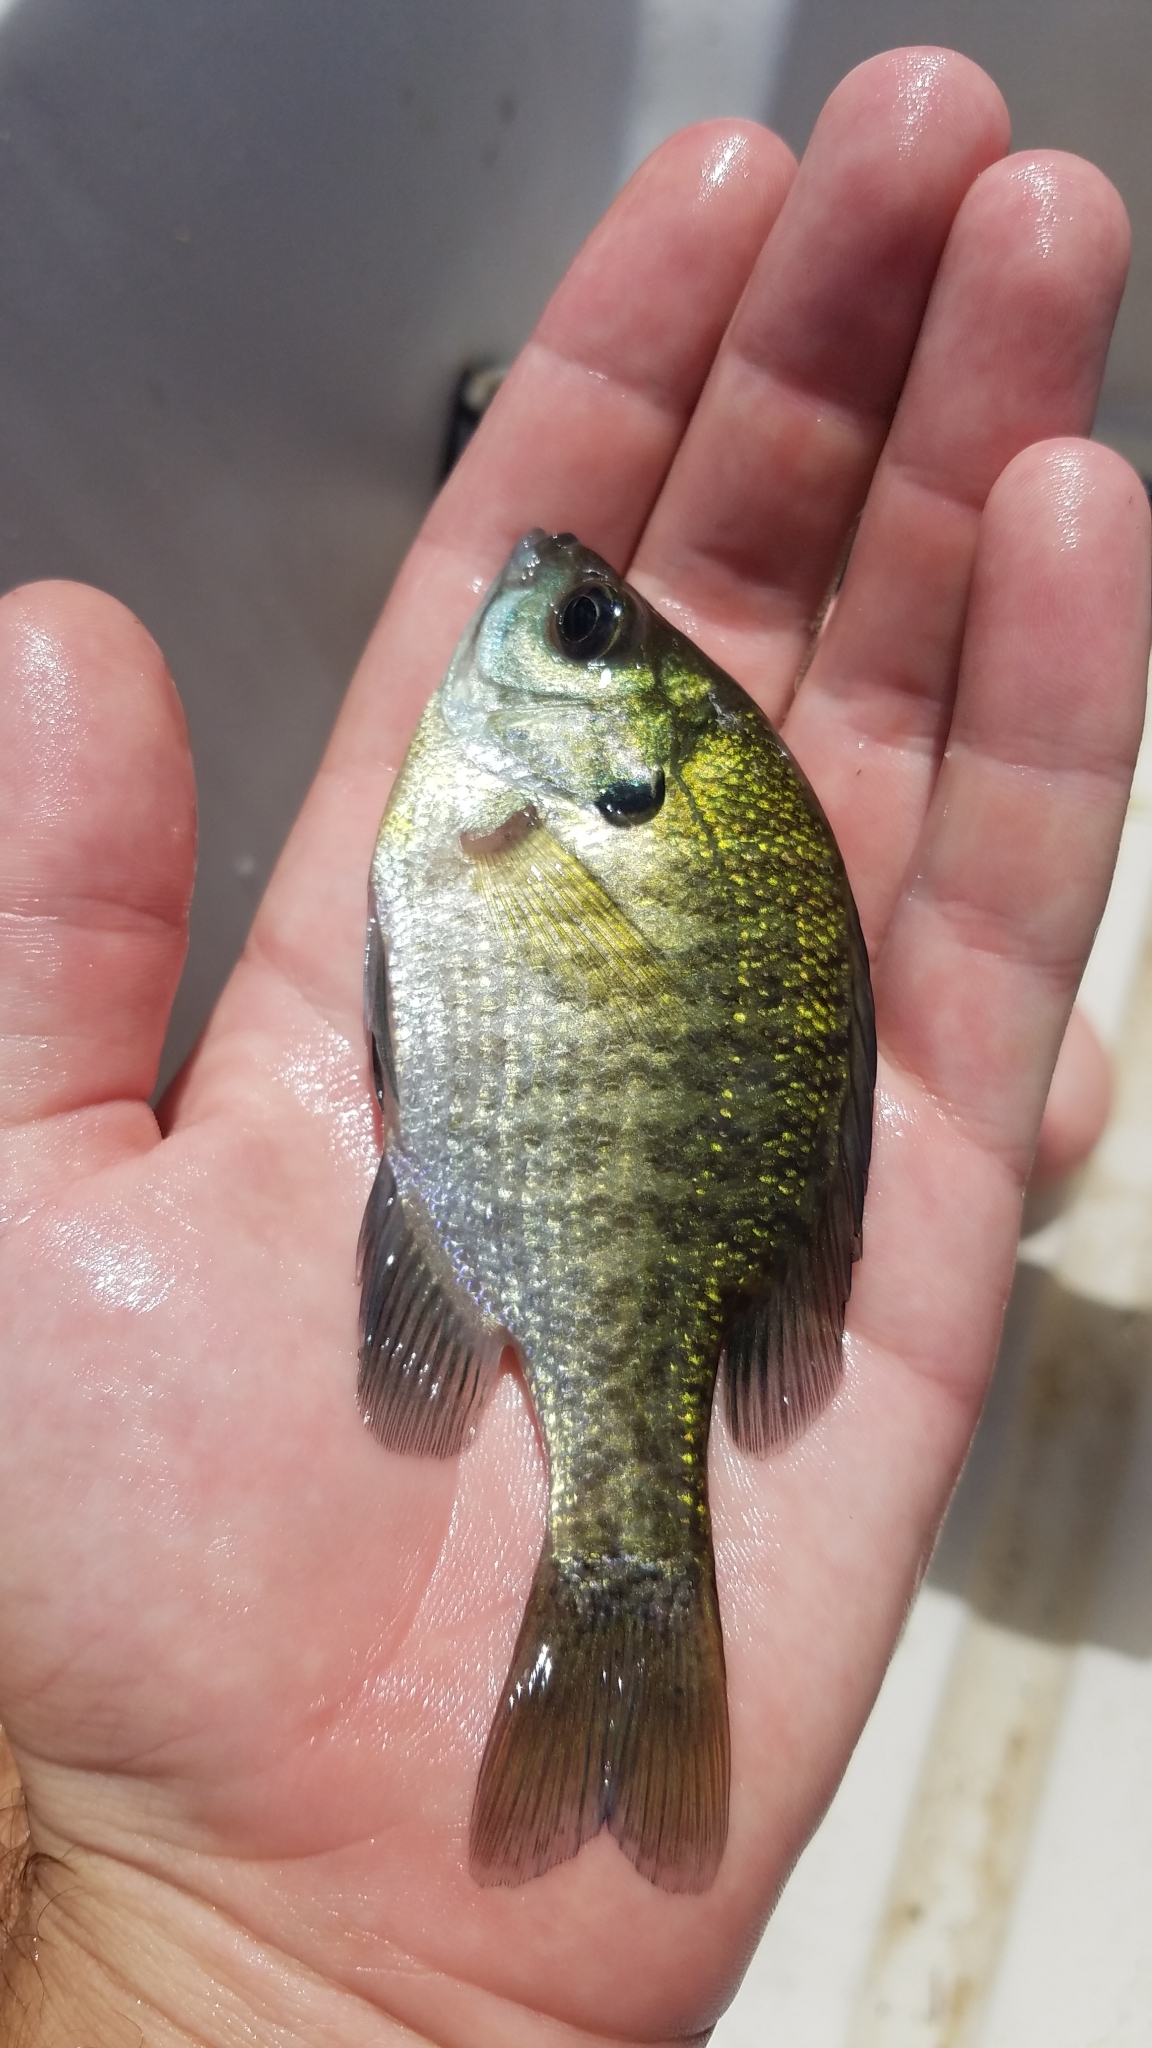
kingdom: Animalia
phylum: Chordata
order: Perciformes
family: Centrarchidae
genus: Lepomis
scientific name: Lepomis macrochirus
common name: Bluegill
